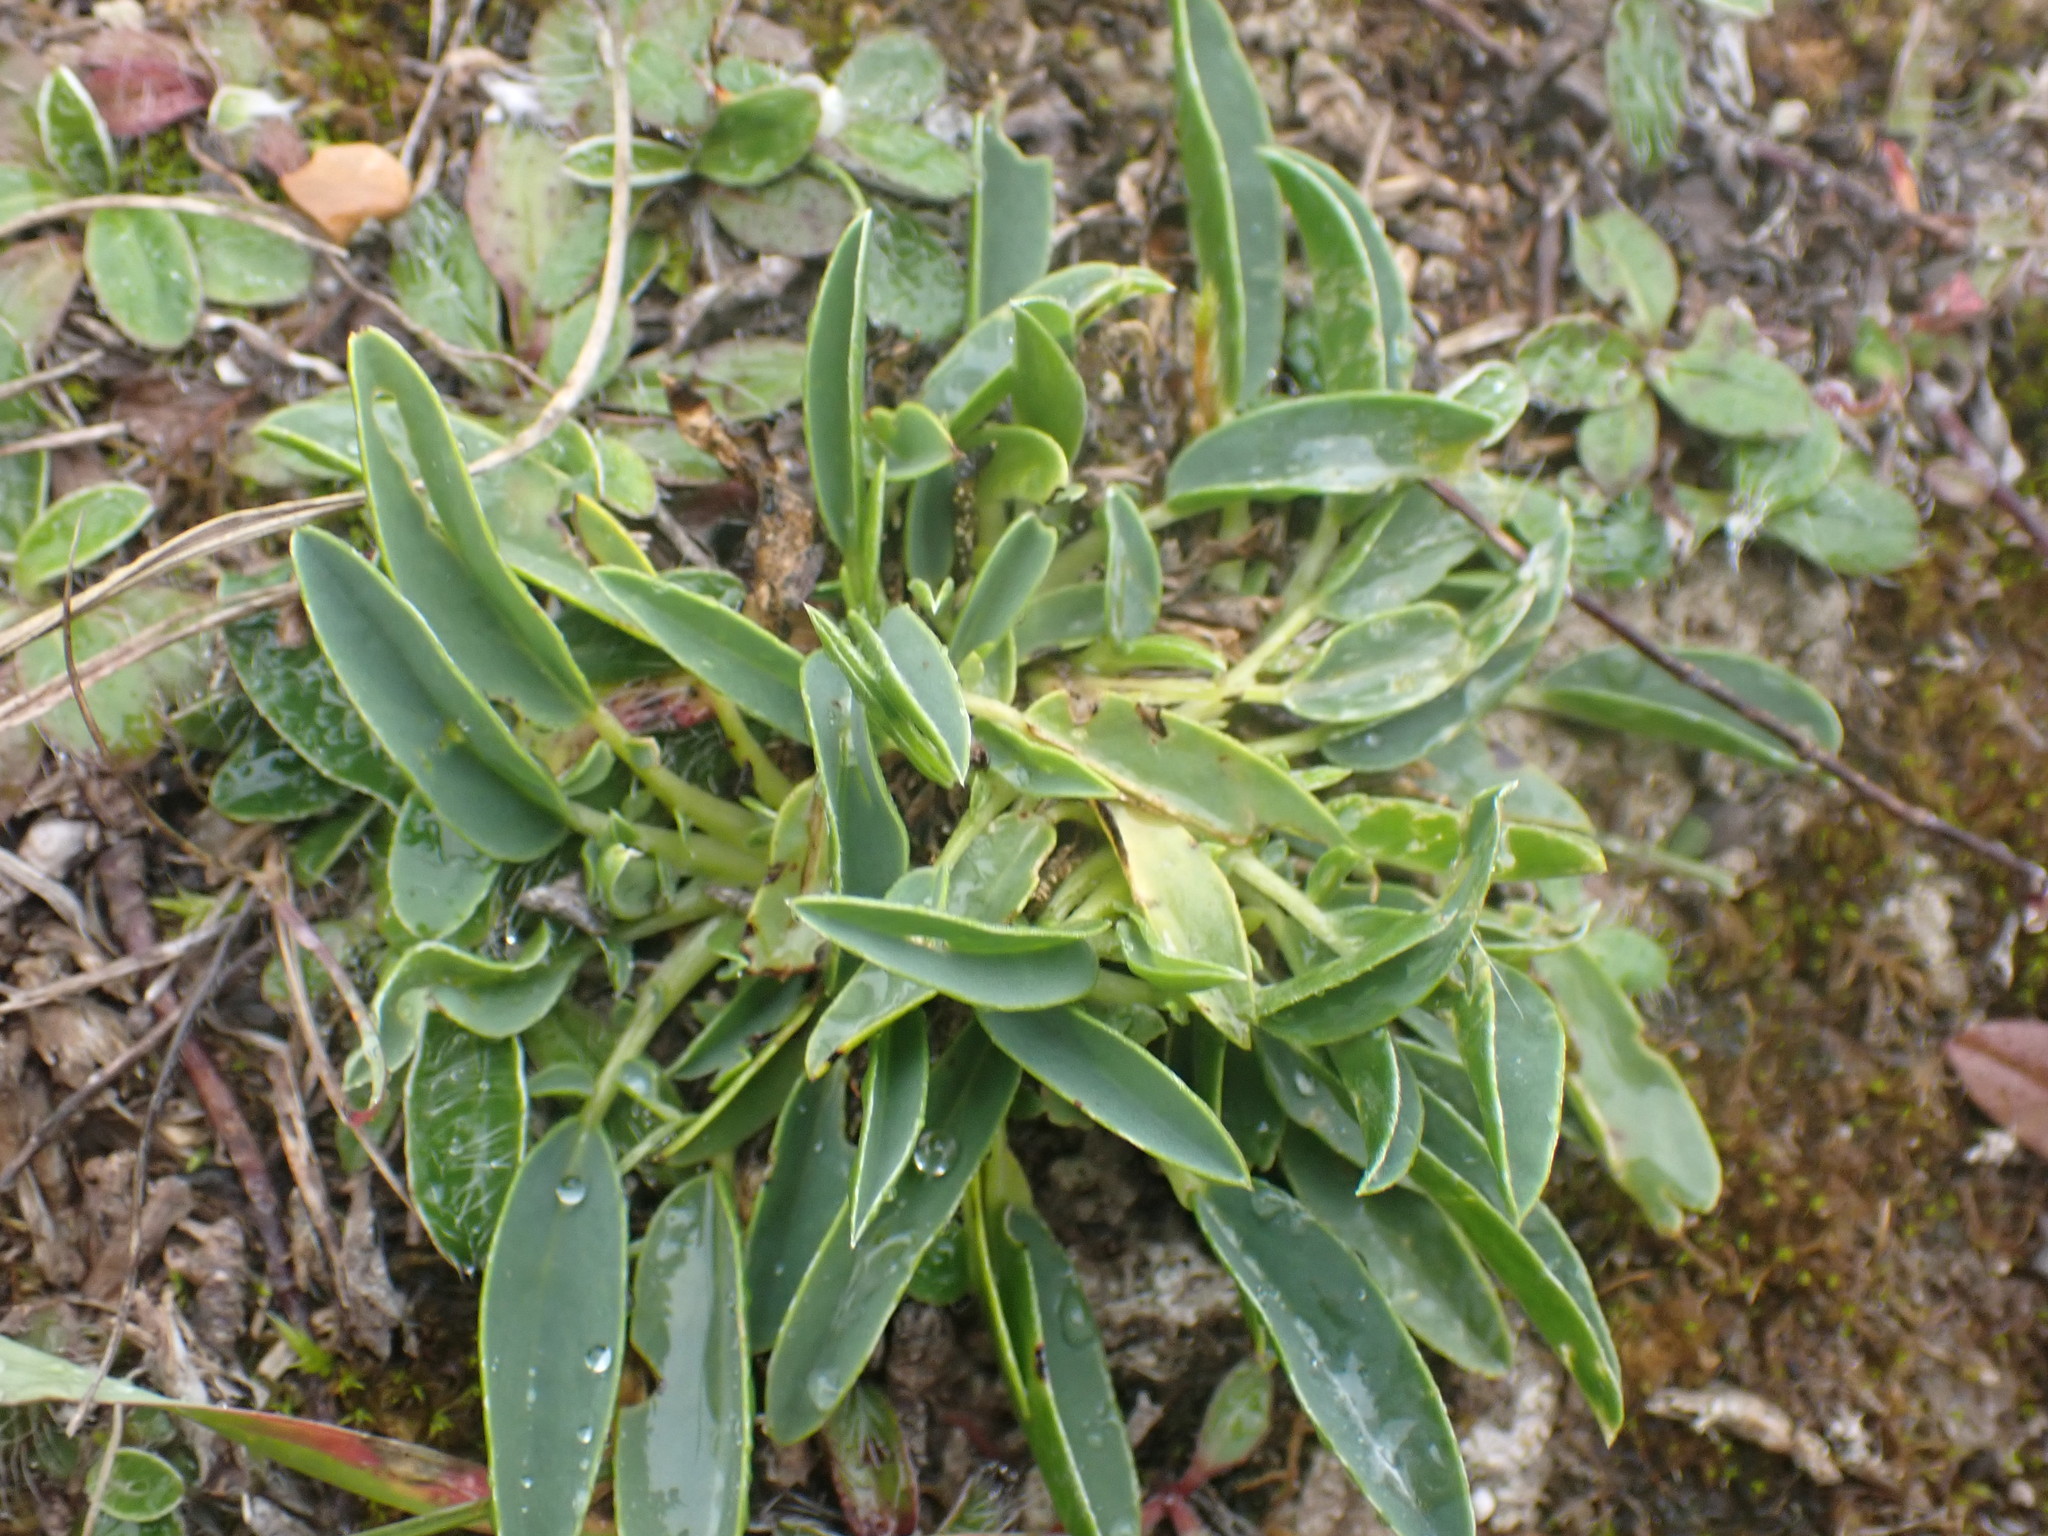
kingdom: Plantae
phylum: Tracheophyta
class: Magnoliopsida
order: Fabales
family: Fabaceae
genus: Anthyllis
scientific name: Anthyllis vulneraria
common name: Kidney vetch
